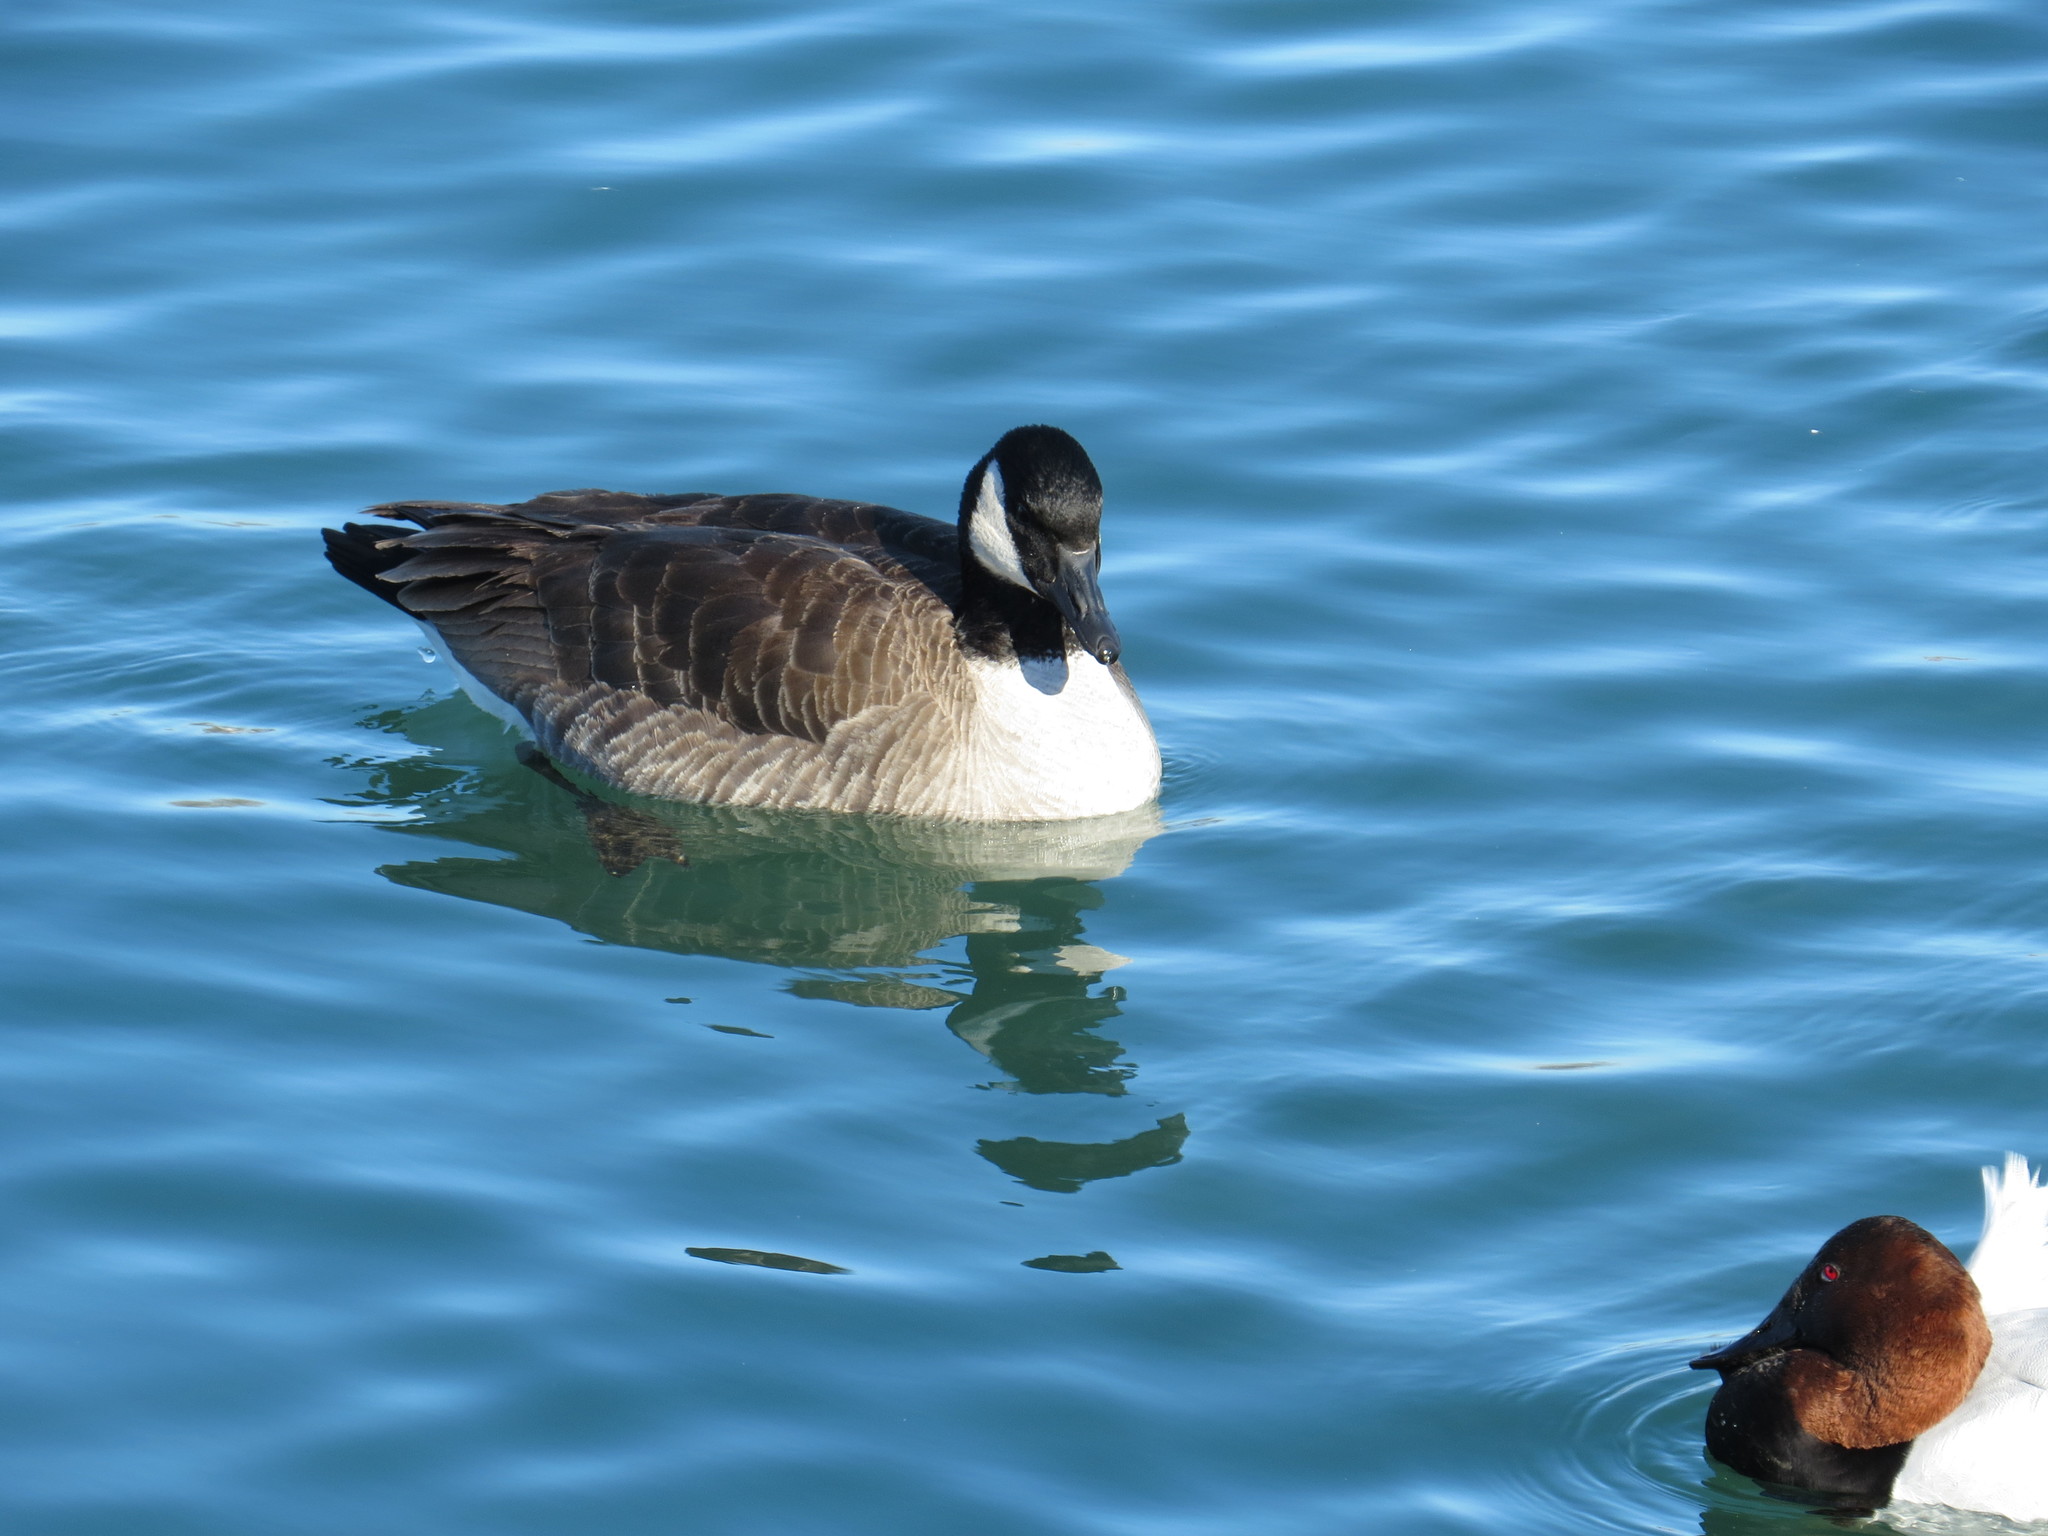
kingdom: Animalia
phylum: Chordata
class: Aves
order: Anseriformes
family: Anatidae
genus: Branta
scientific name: Branta canadensis
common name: Canada goose
